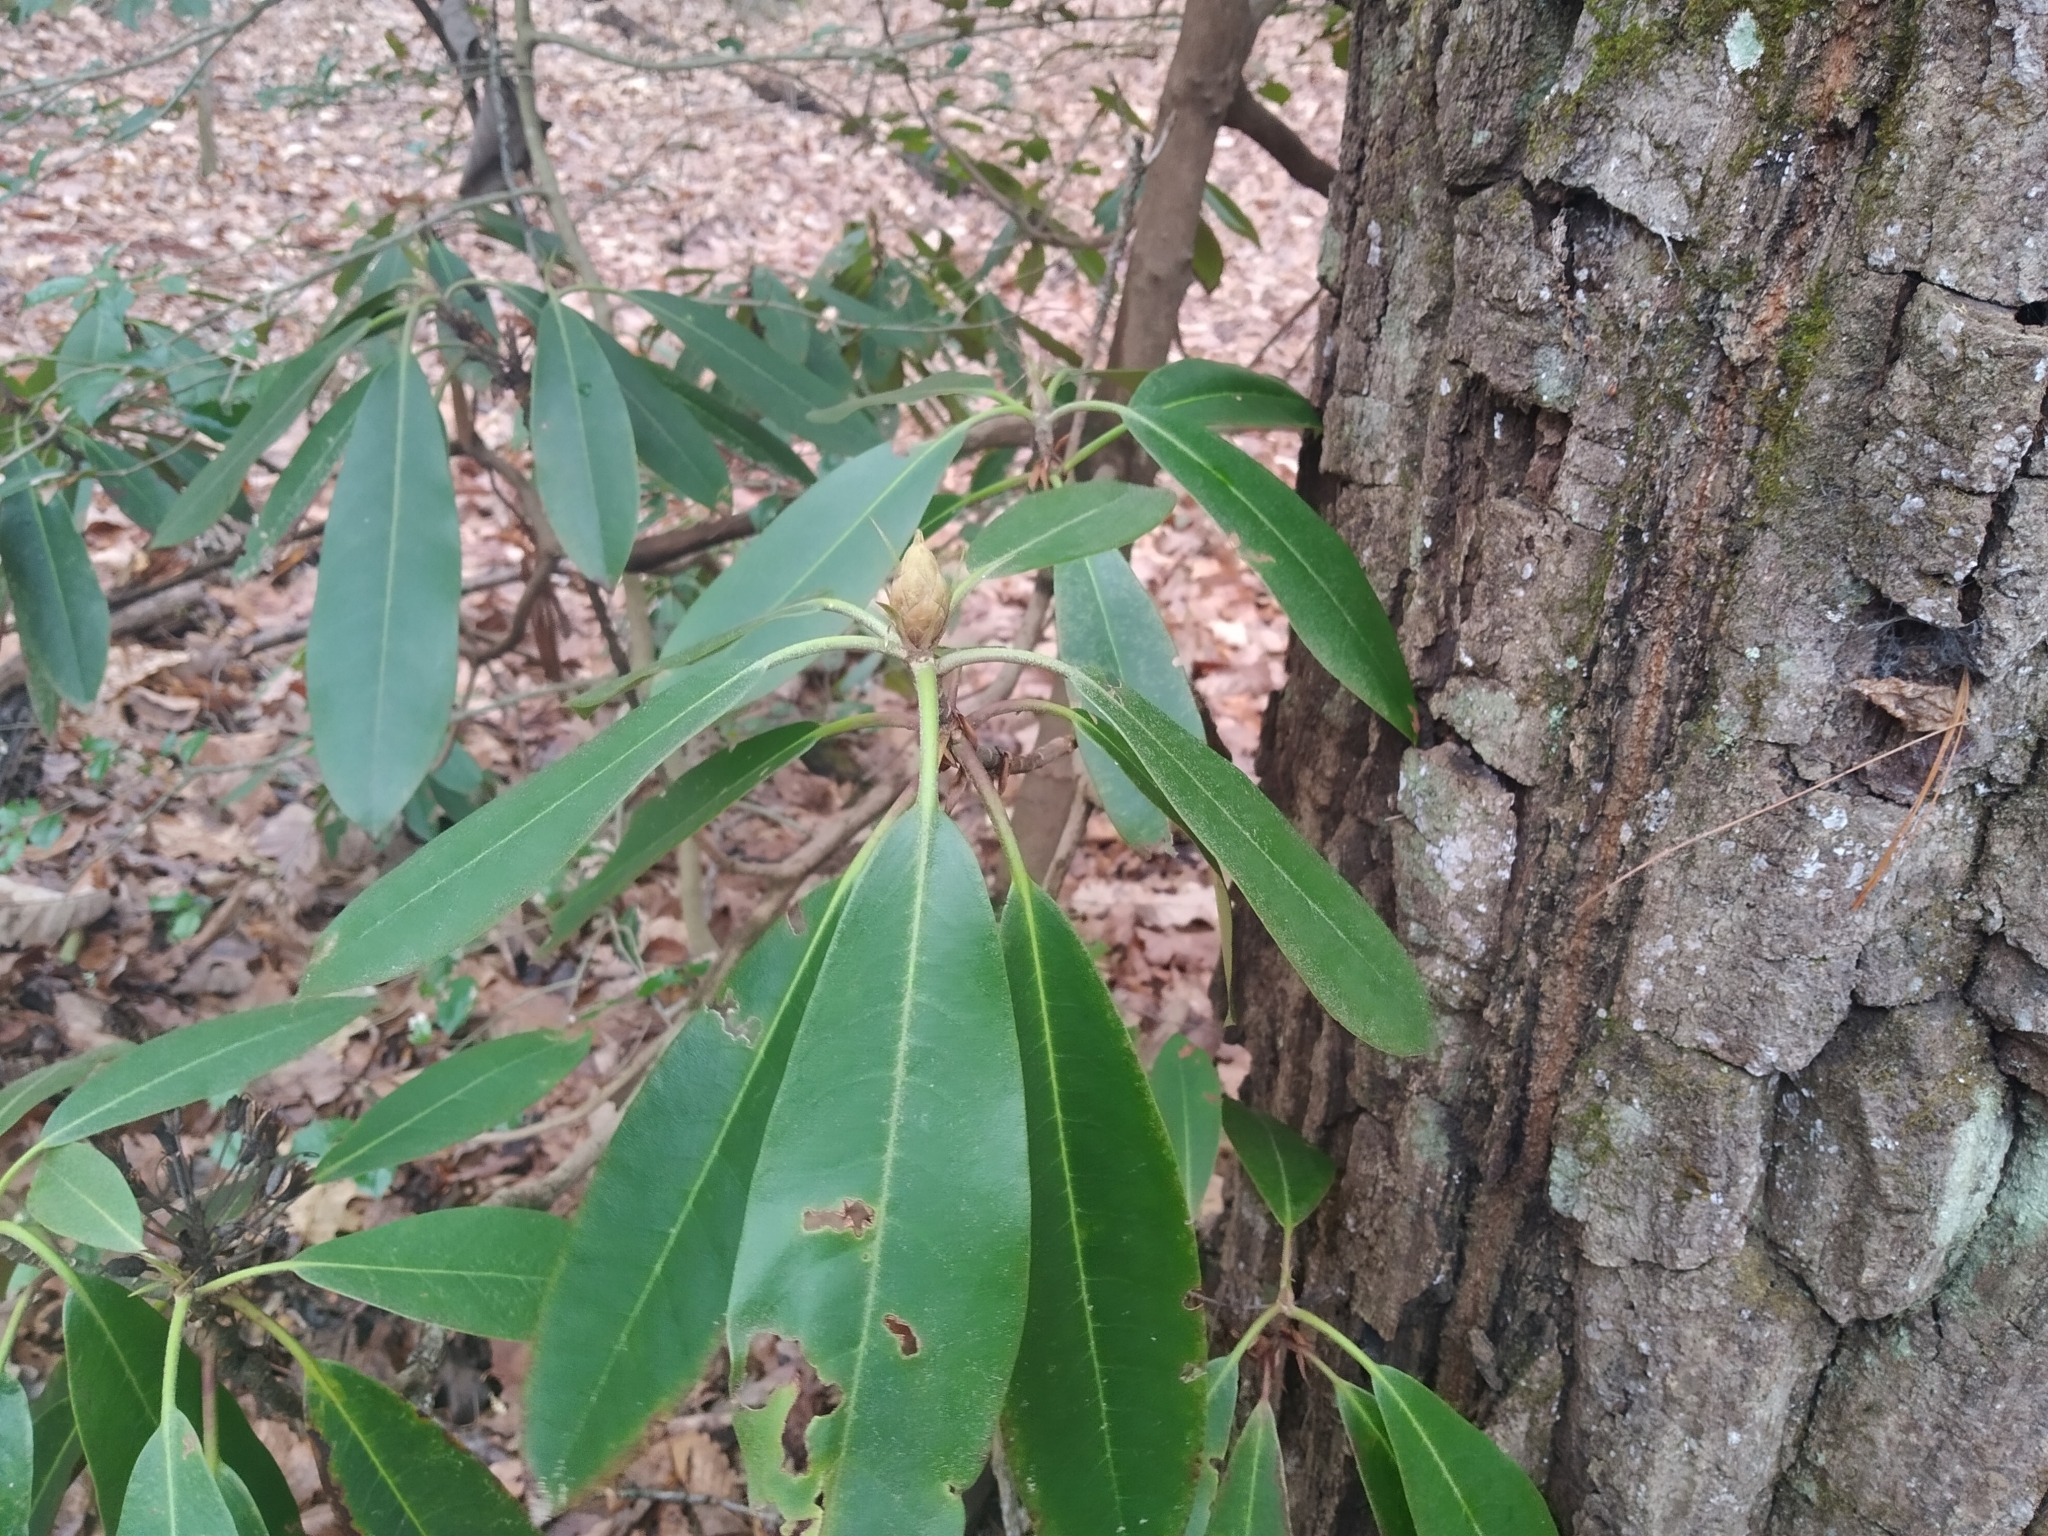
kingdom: Plantae
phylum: Tracheophyta
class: Magnoliopsida
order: Ericales
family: Ericaceae
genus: Rhododendron
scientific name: Rhododendron maximum
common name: Great rhododendron
